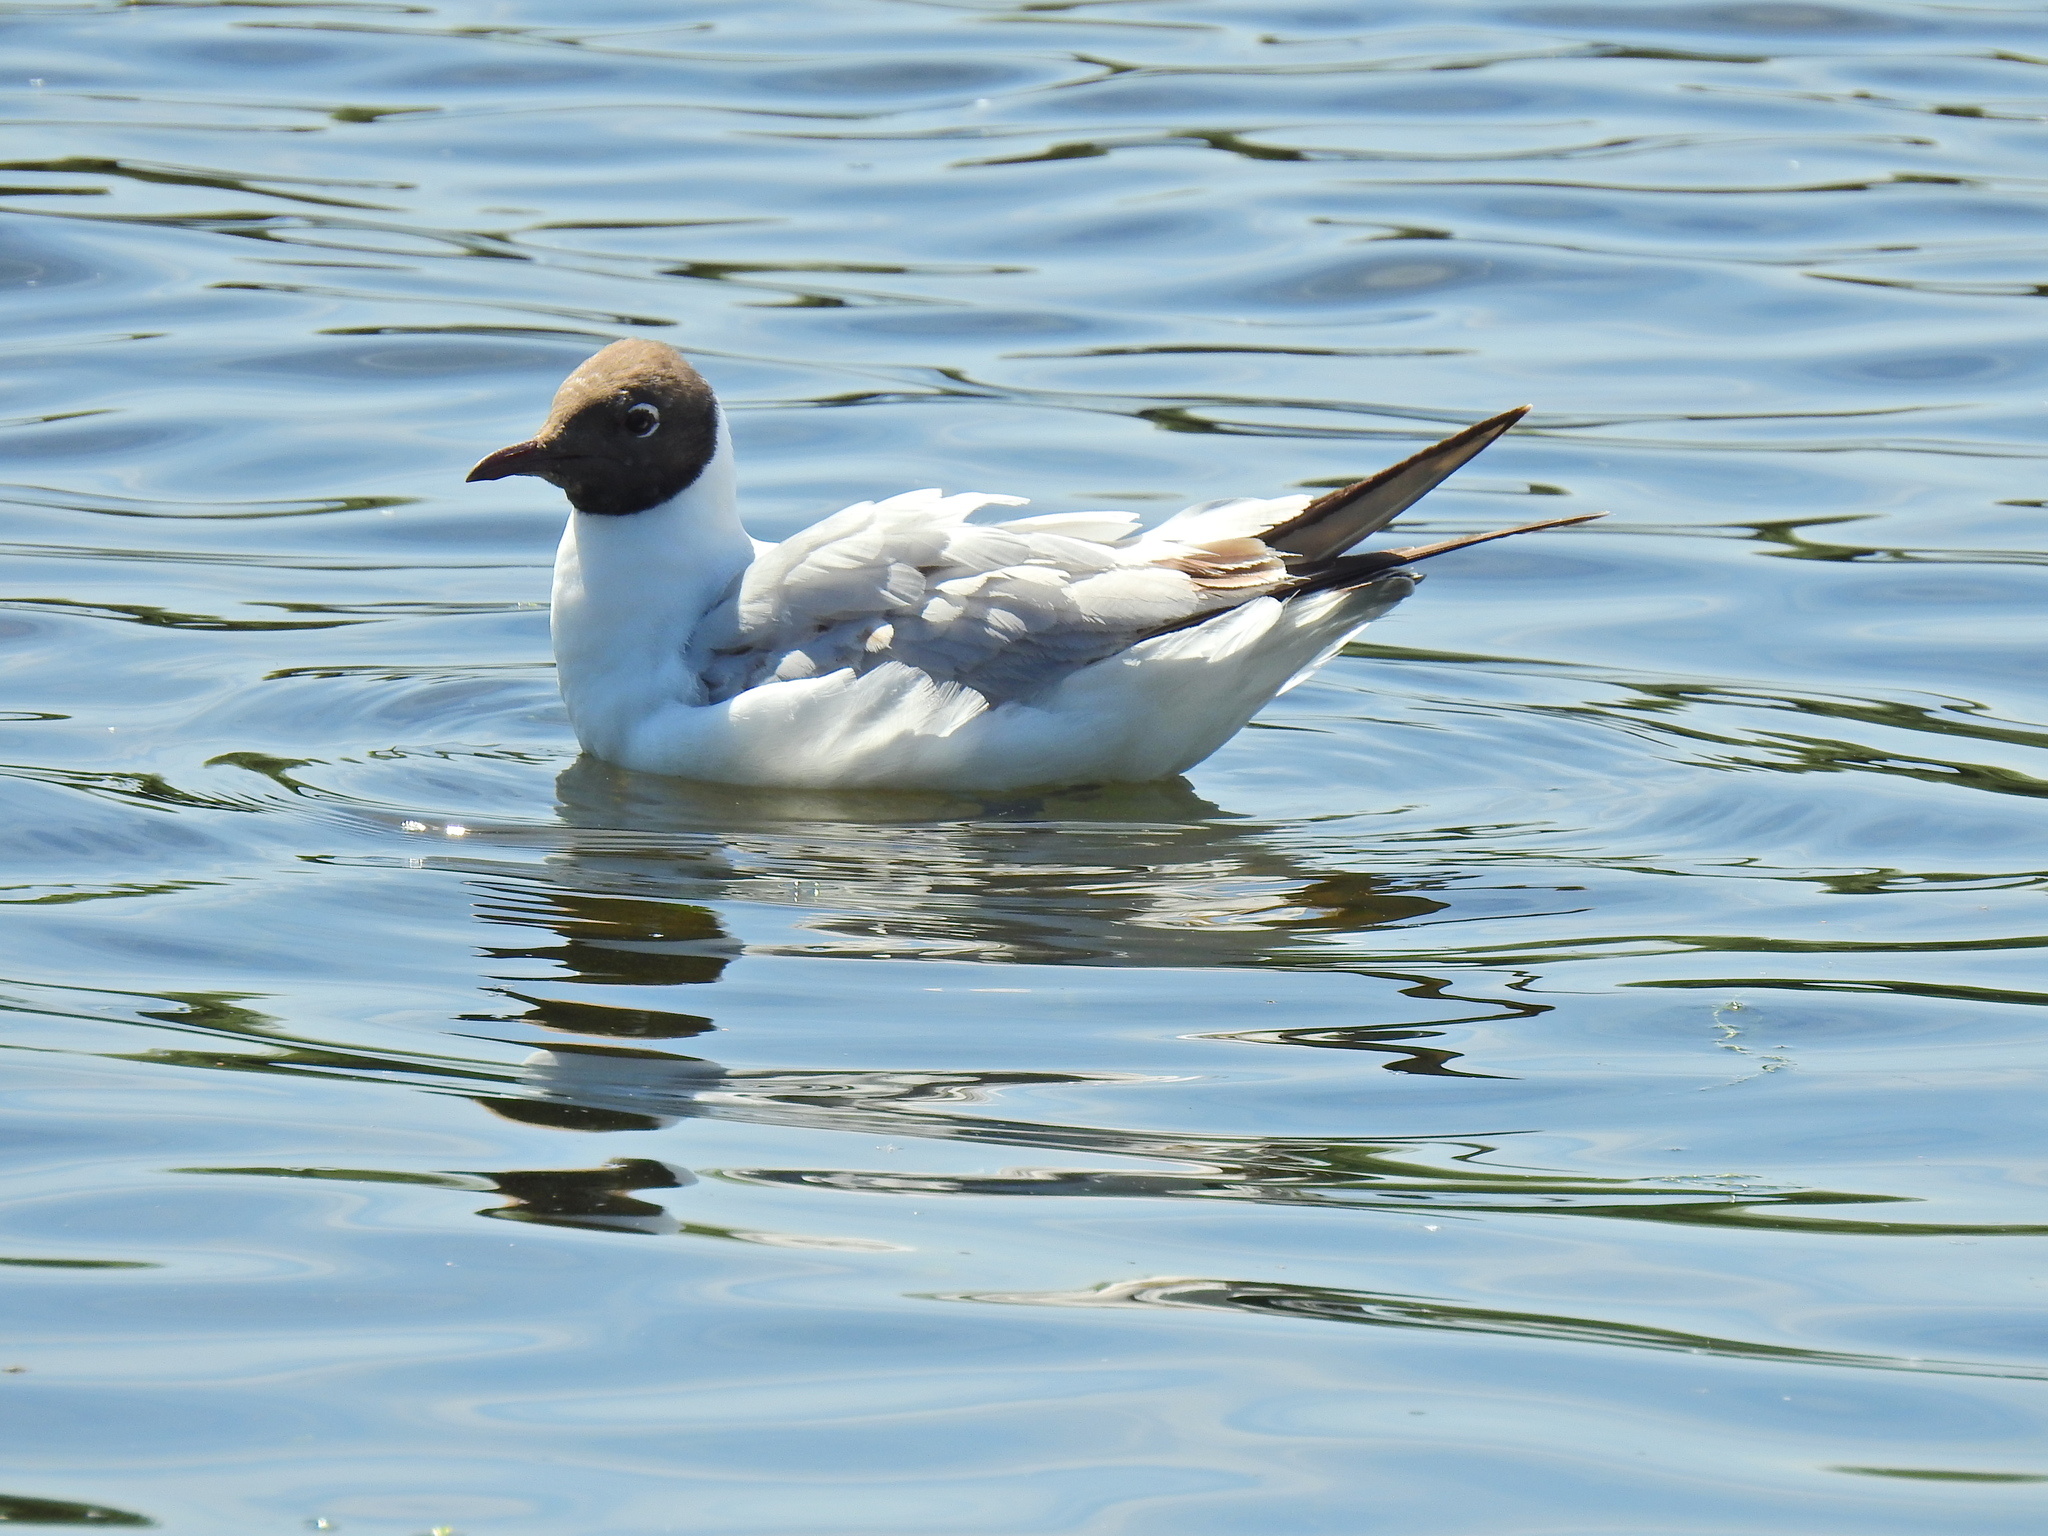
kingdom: Animalia
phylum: Chordata
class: Aves
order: Charadriiformes
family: Laridae
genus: Chroicocephalus
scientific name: Chroicocephalus ridibundus
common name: Black-headed gull
